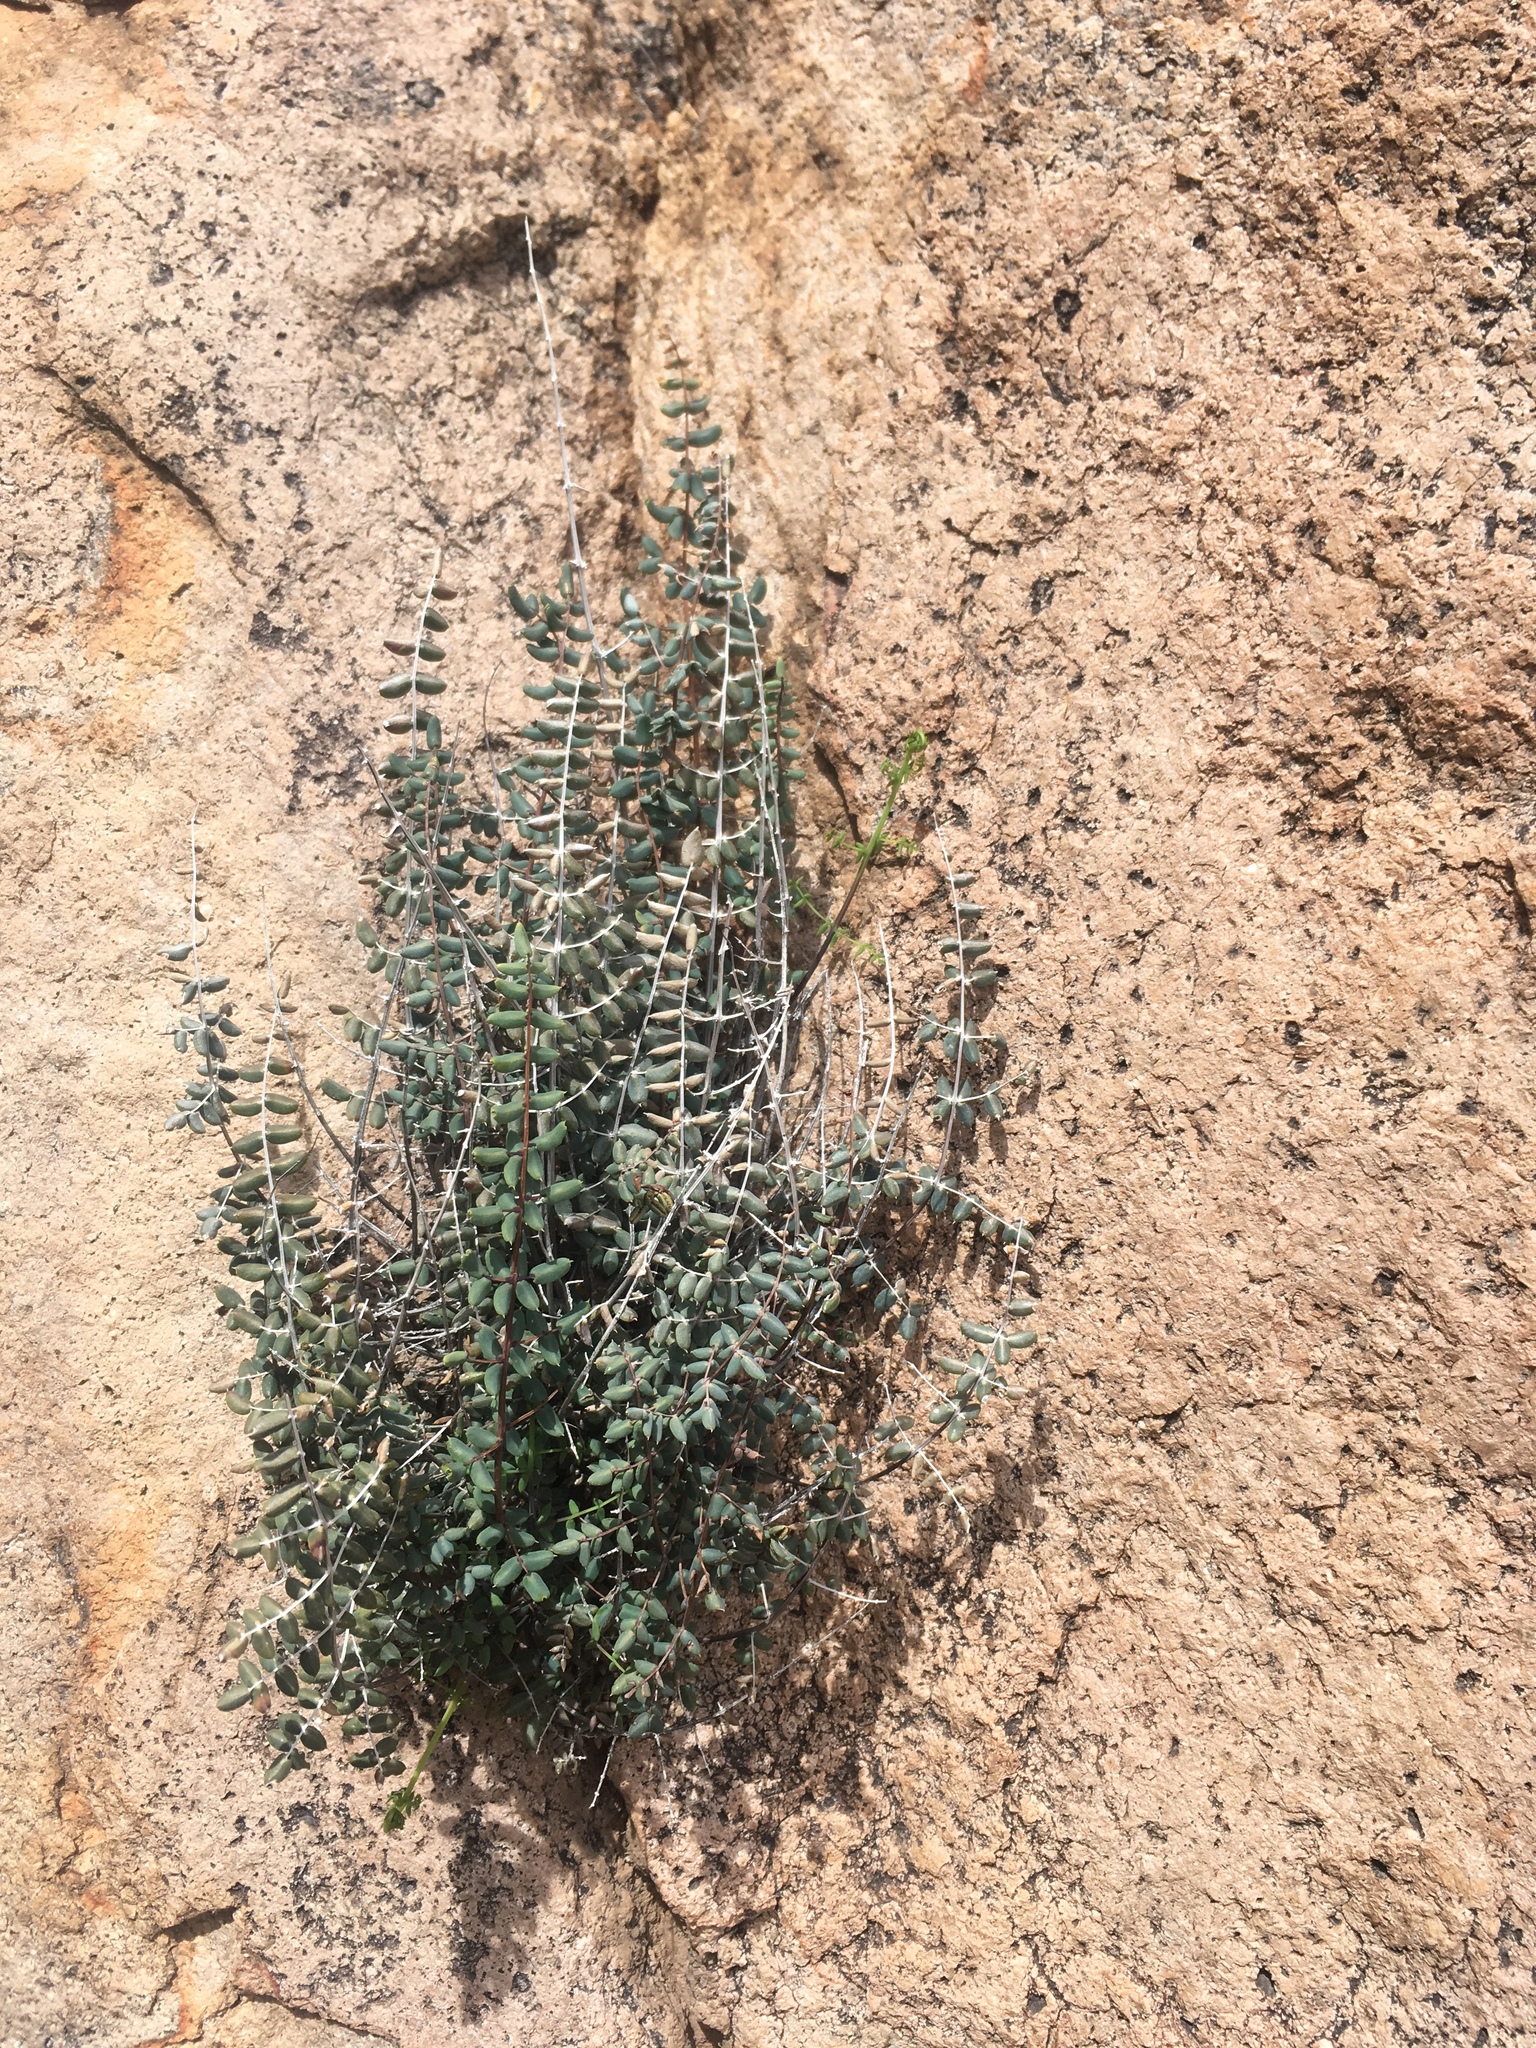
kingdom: Plantae
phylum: Tracheophyta
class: Polypodiopsida
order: Polypodiales
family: Pteridaceae
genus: Pellaea
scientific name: Pellaea truncata
